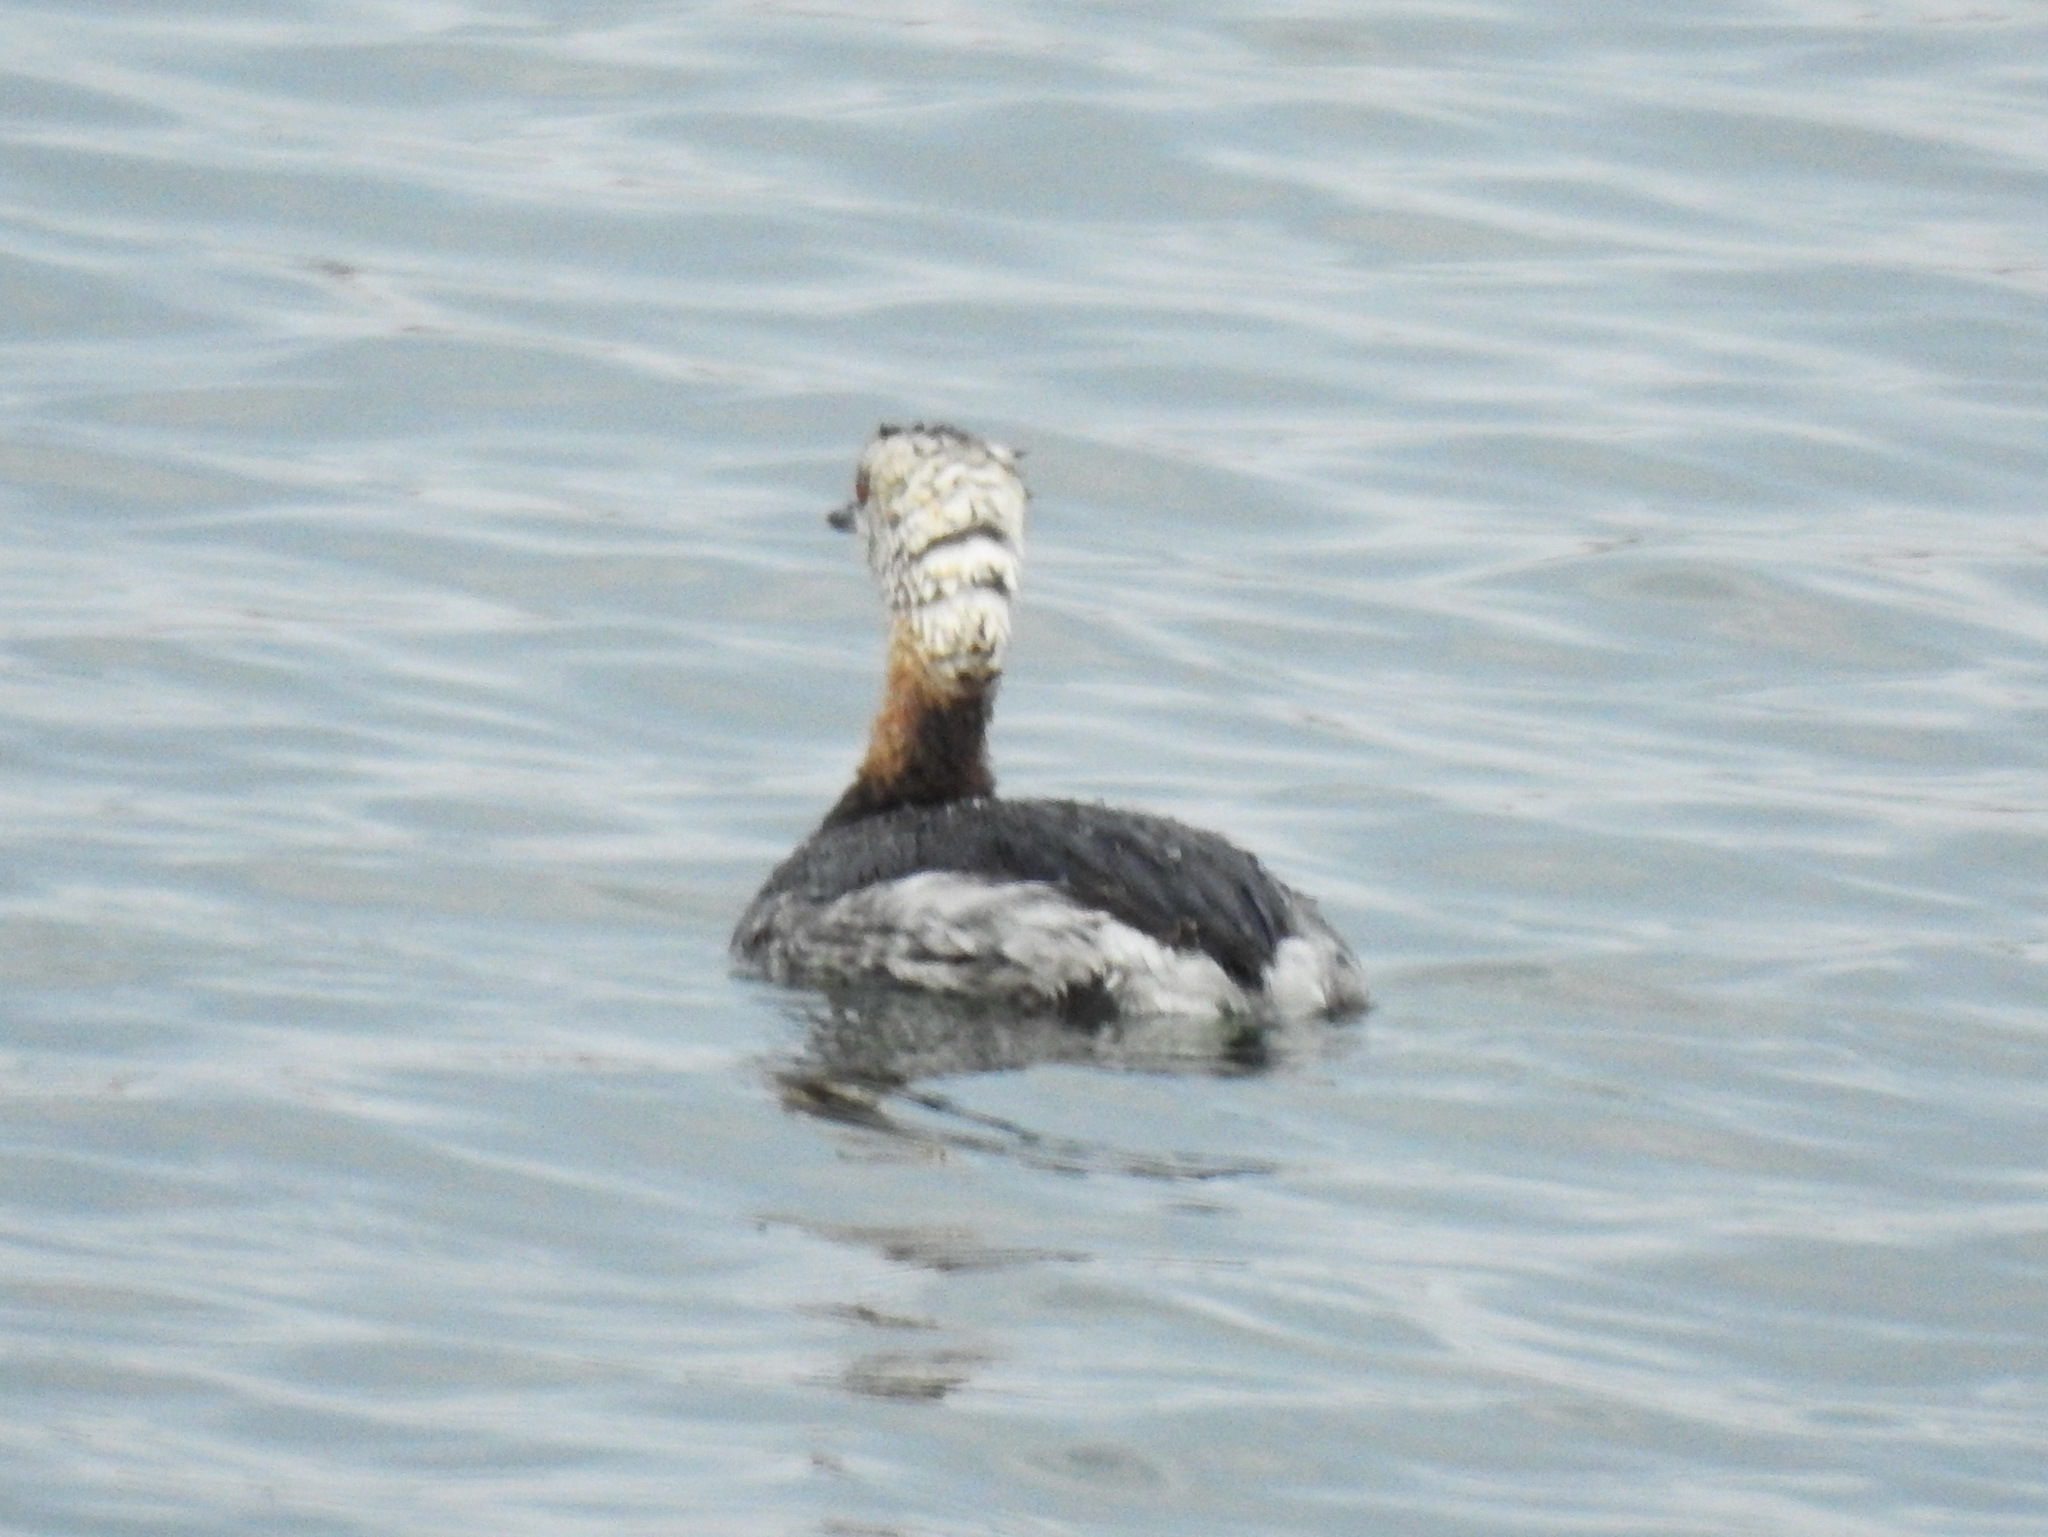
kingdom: Animalia
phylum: Chordata
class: Aves
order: Podicipediformes
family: Podicipedidae
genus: Podiceps
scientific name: Podiceps auritus
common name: Horned grebe
